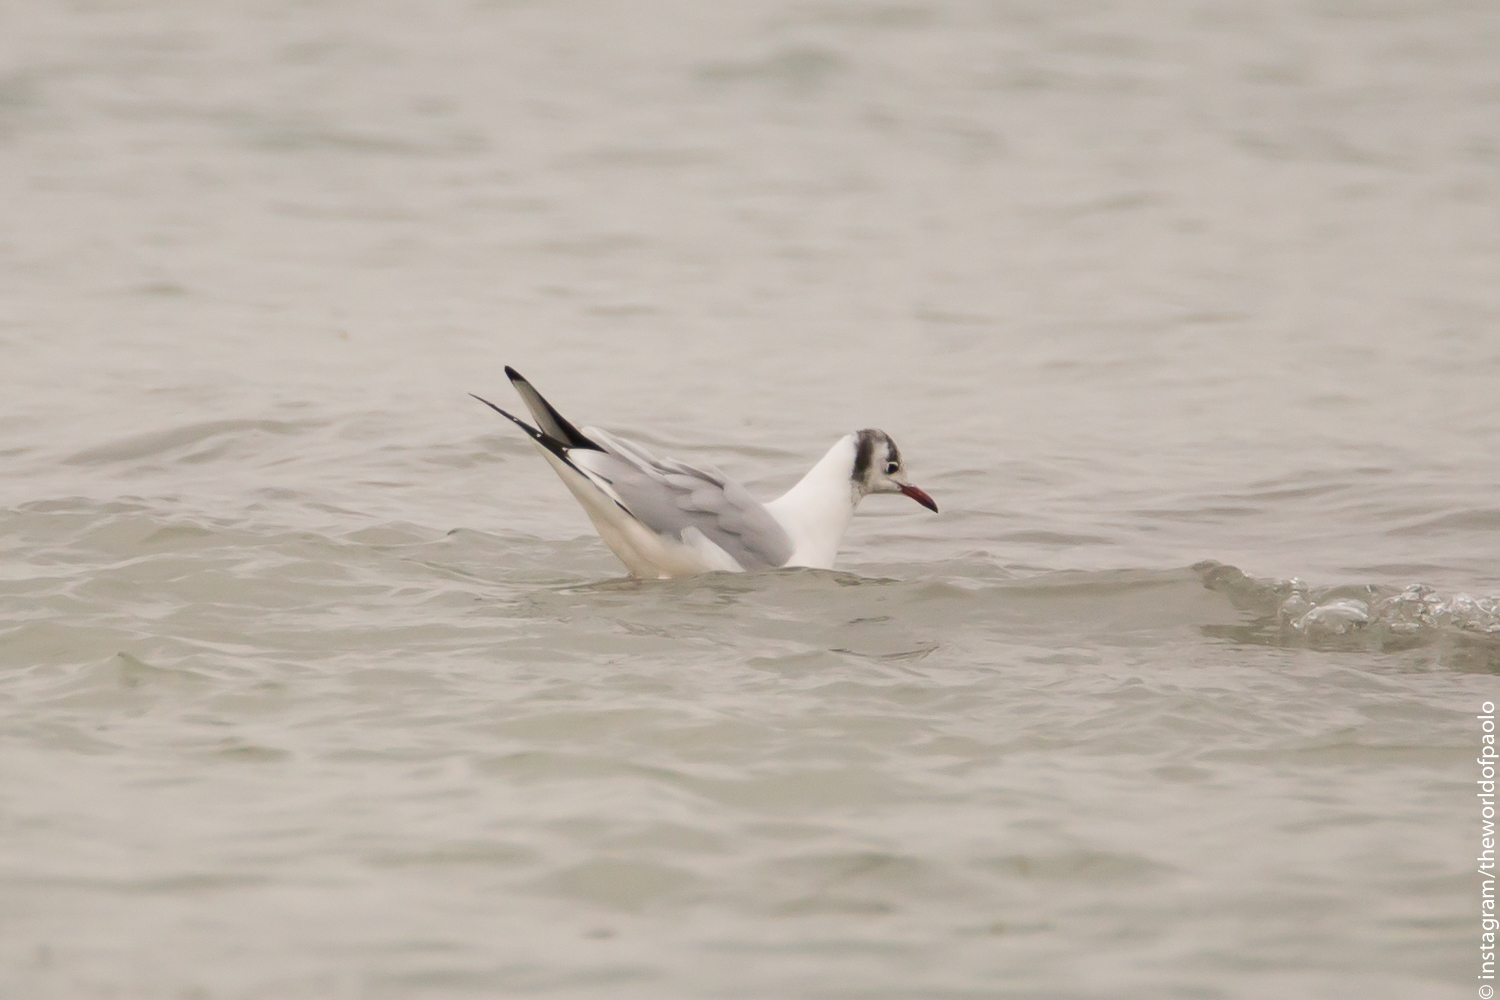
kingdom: Animalia
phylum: Chordata
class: Aves
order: Charadriiformes
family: Laridae
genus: Chroicocephalus
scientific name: Chroicocephalus ridibundus
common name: Black-headed gull
